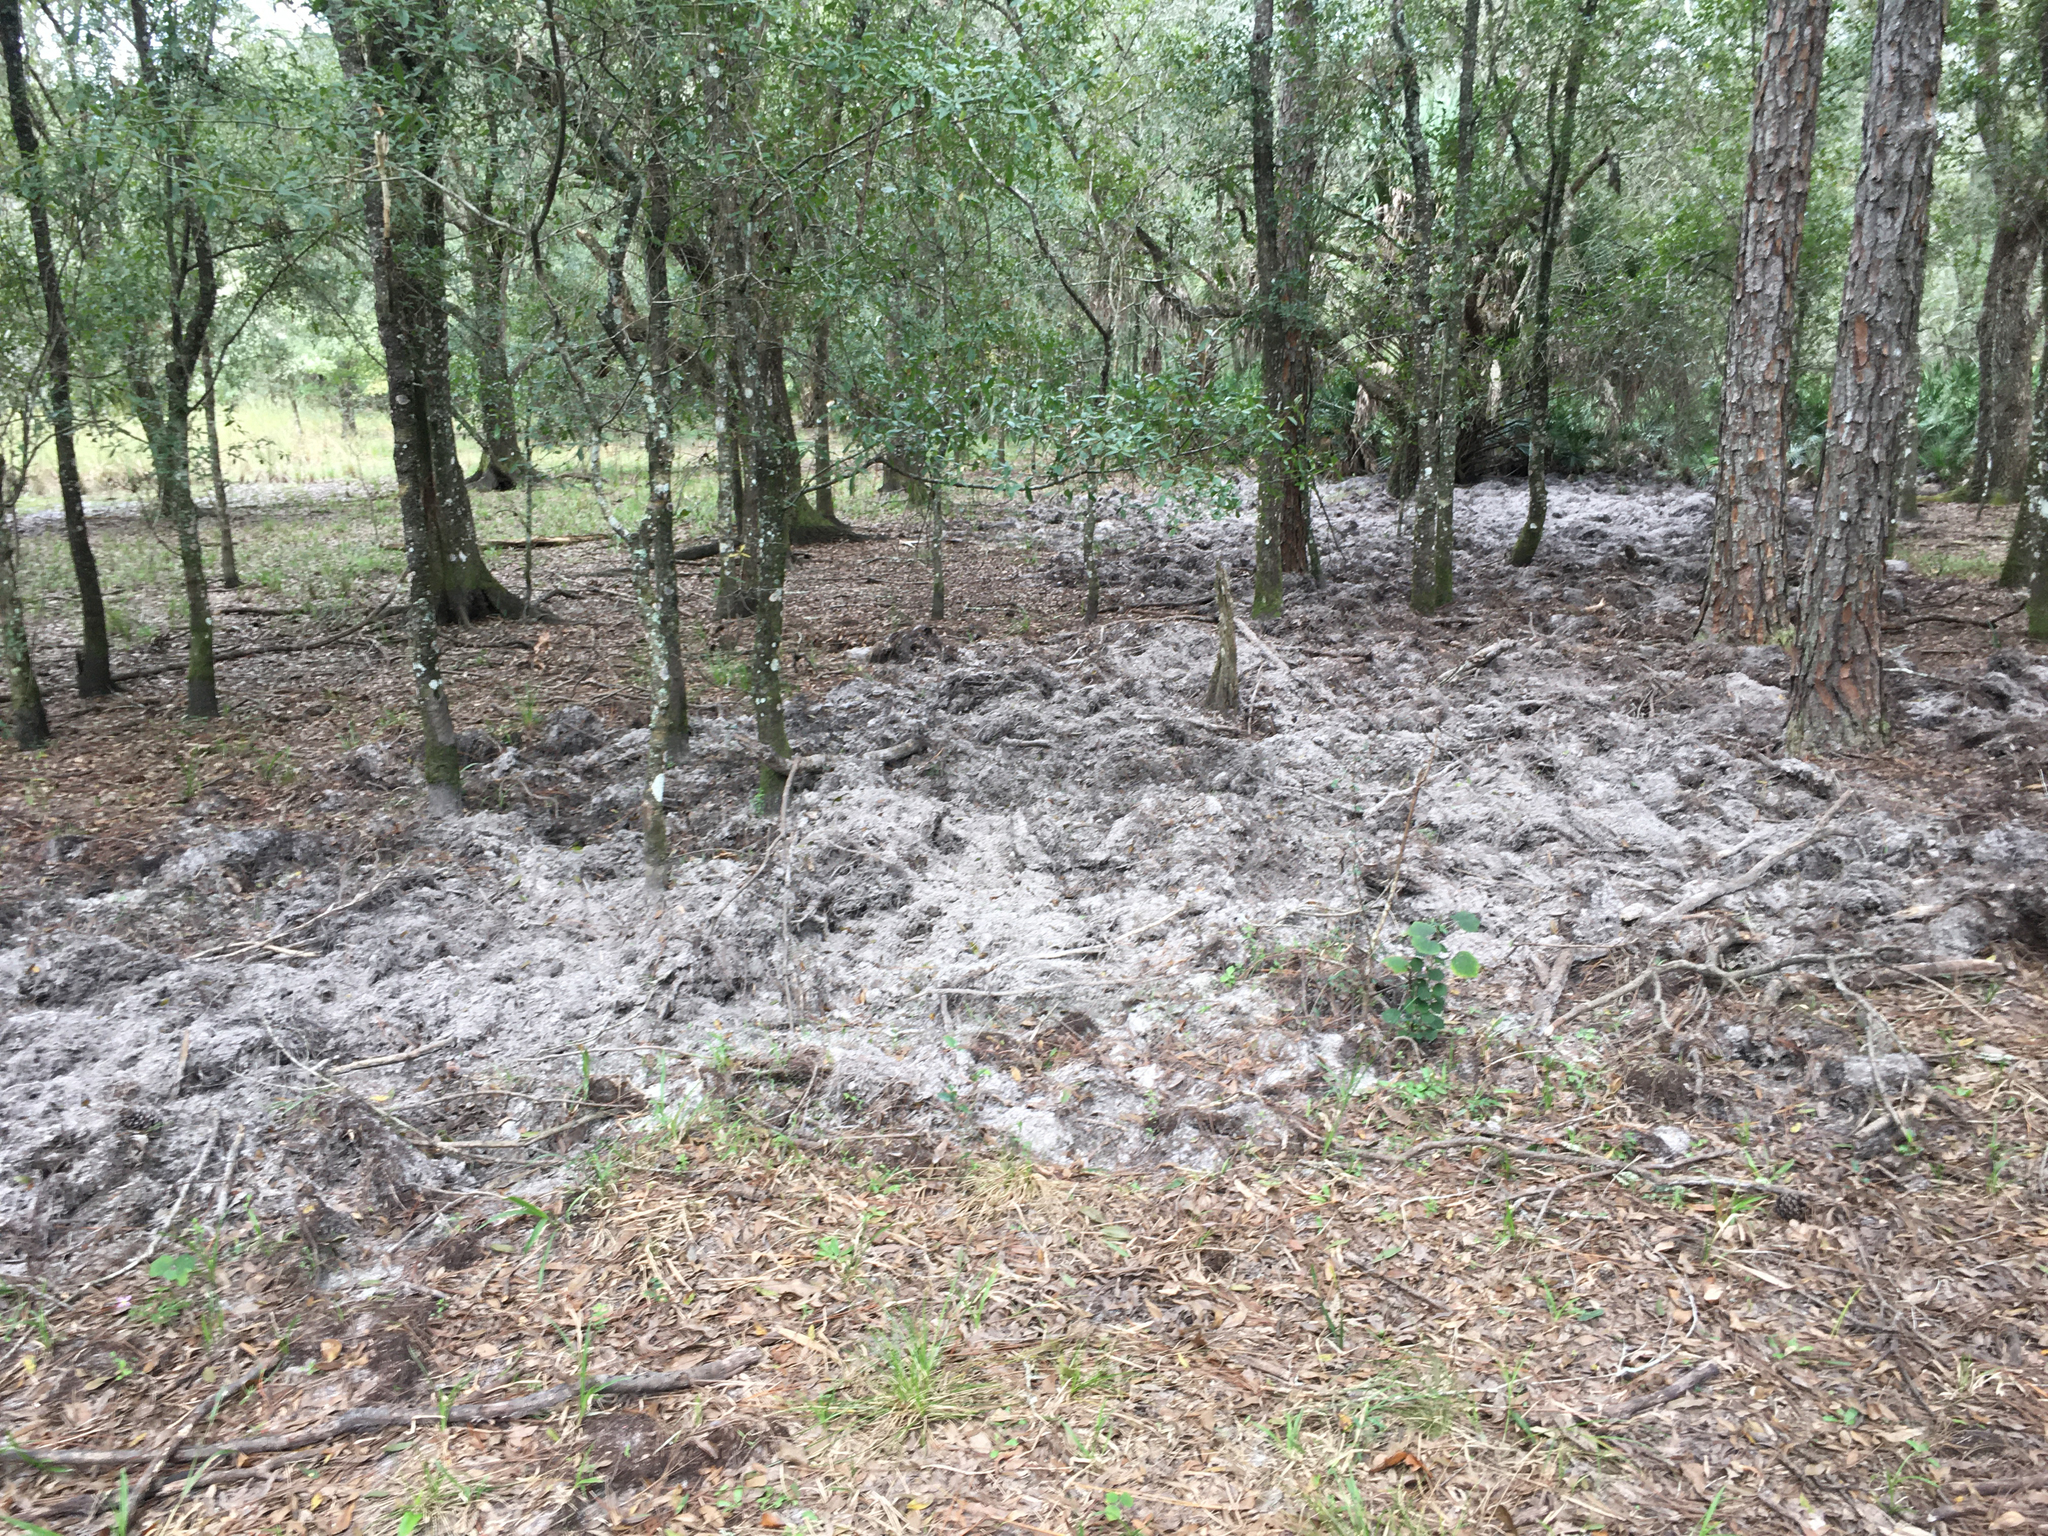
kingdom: Animalia
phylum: Chordata
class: Mammalia
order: Artiodactyla
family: Suidae
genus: Sus
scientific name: Sus scrofa
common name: Wild boar
